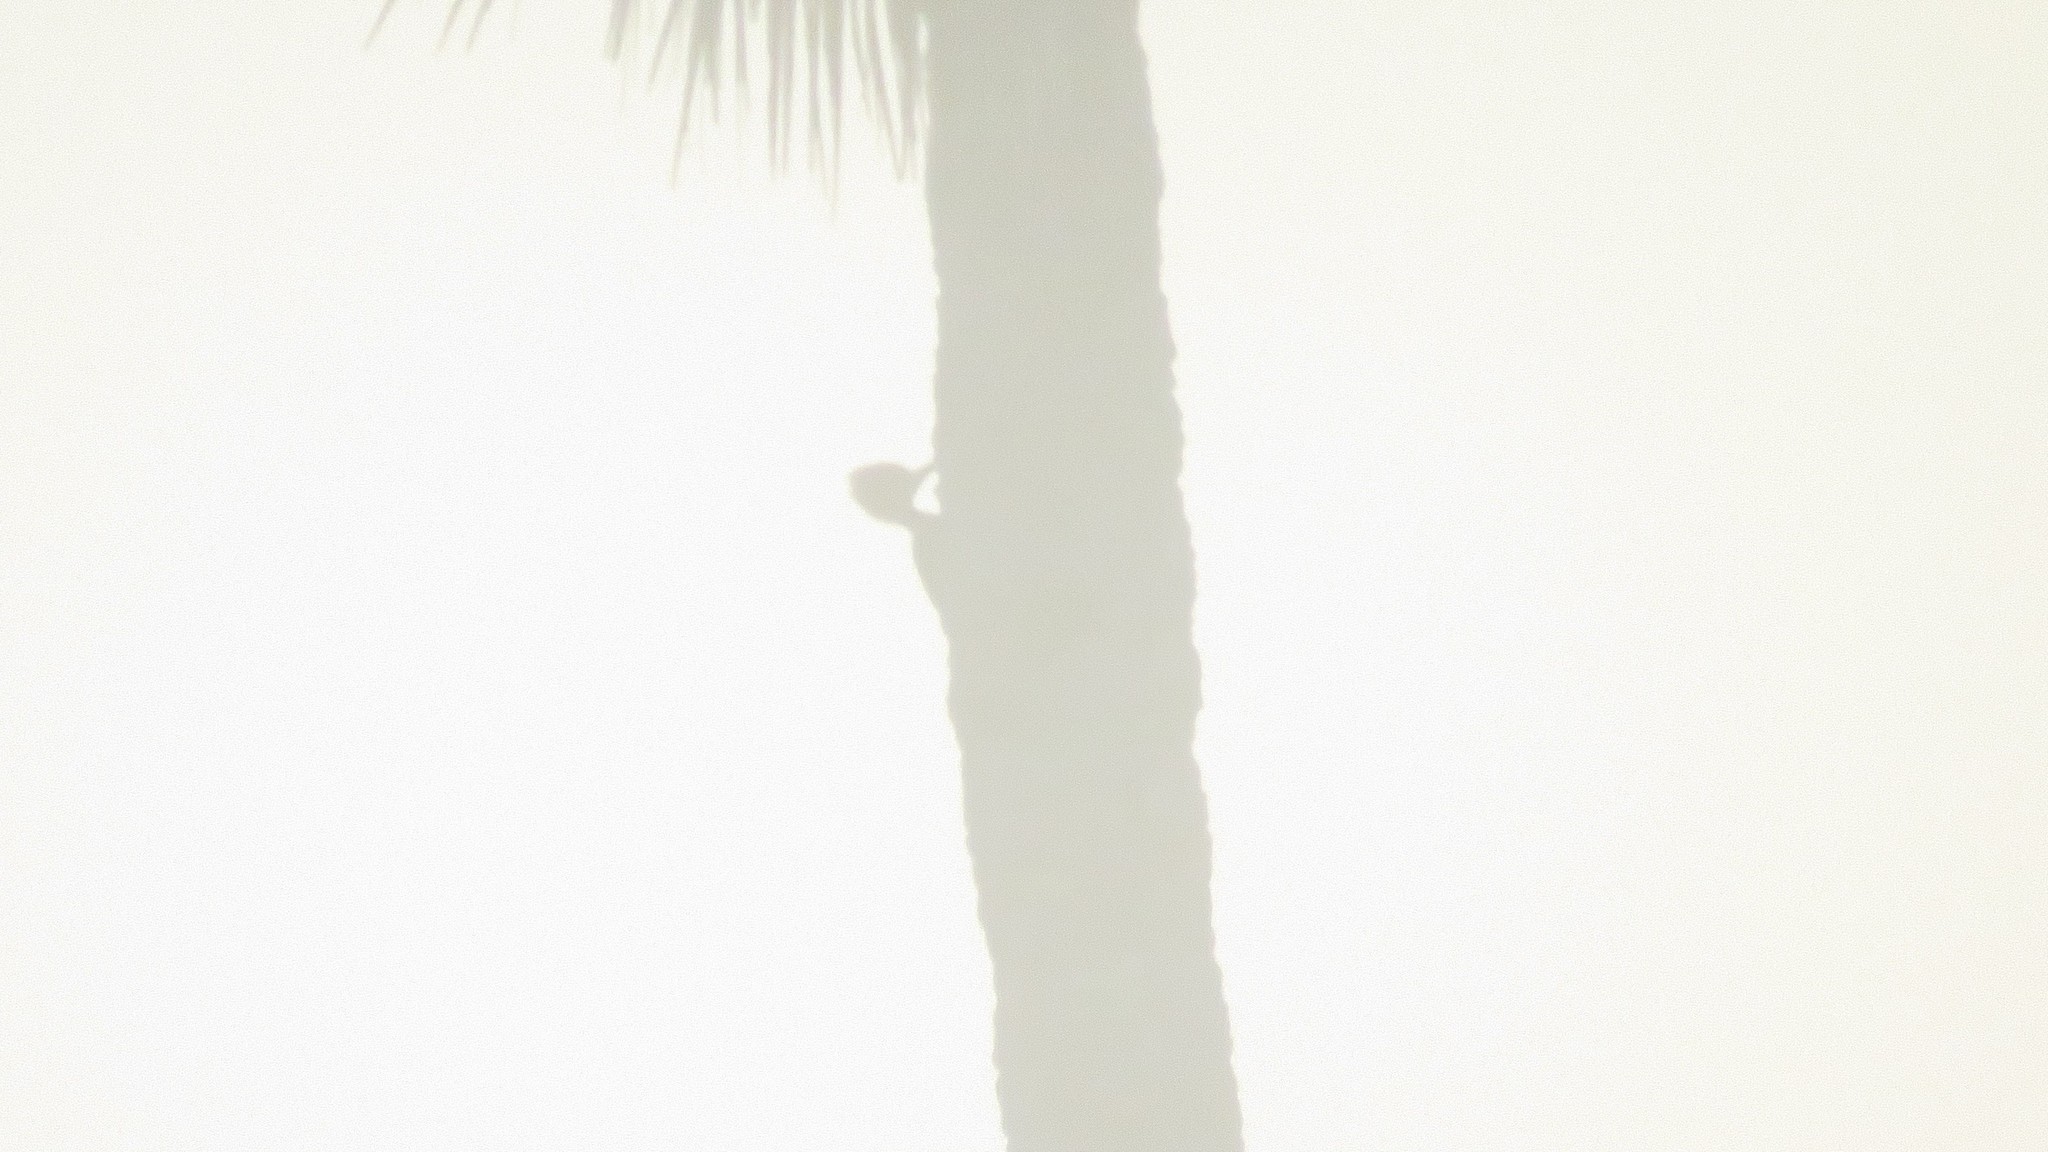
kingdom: Animalia
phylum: Chordata
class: Aves
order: Piciformes
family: Picidae
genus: Dryocopus
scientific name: Dryocopus lineatus
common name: Lineated woodpecker
